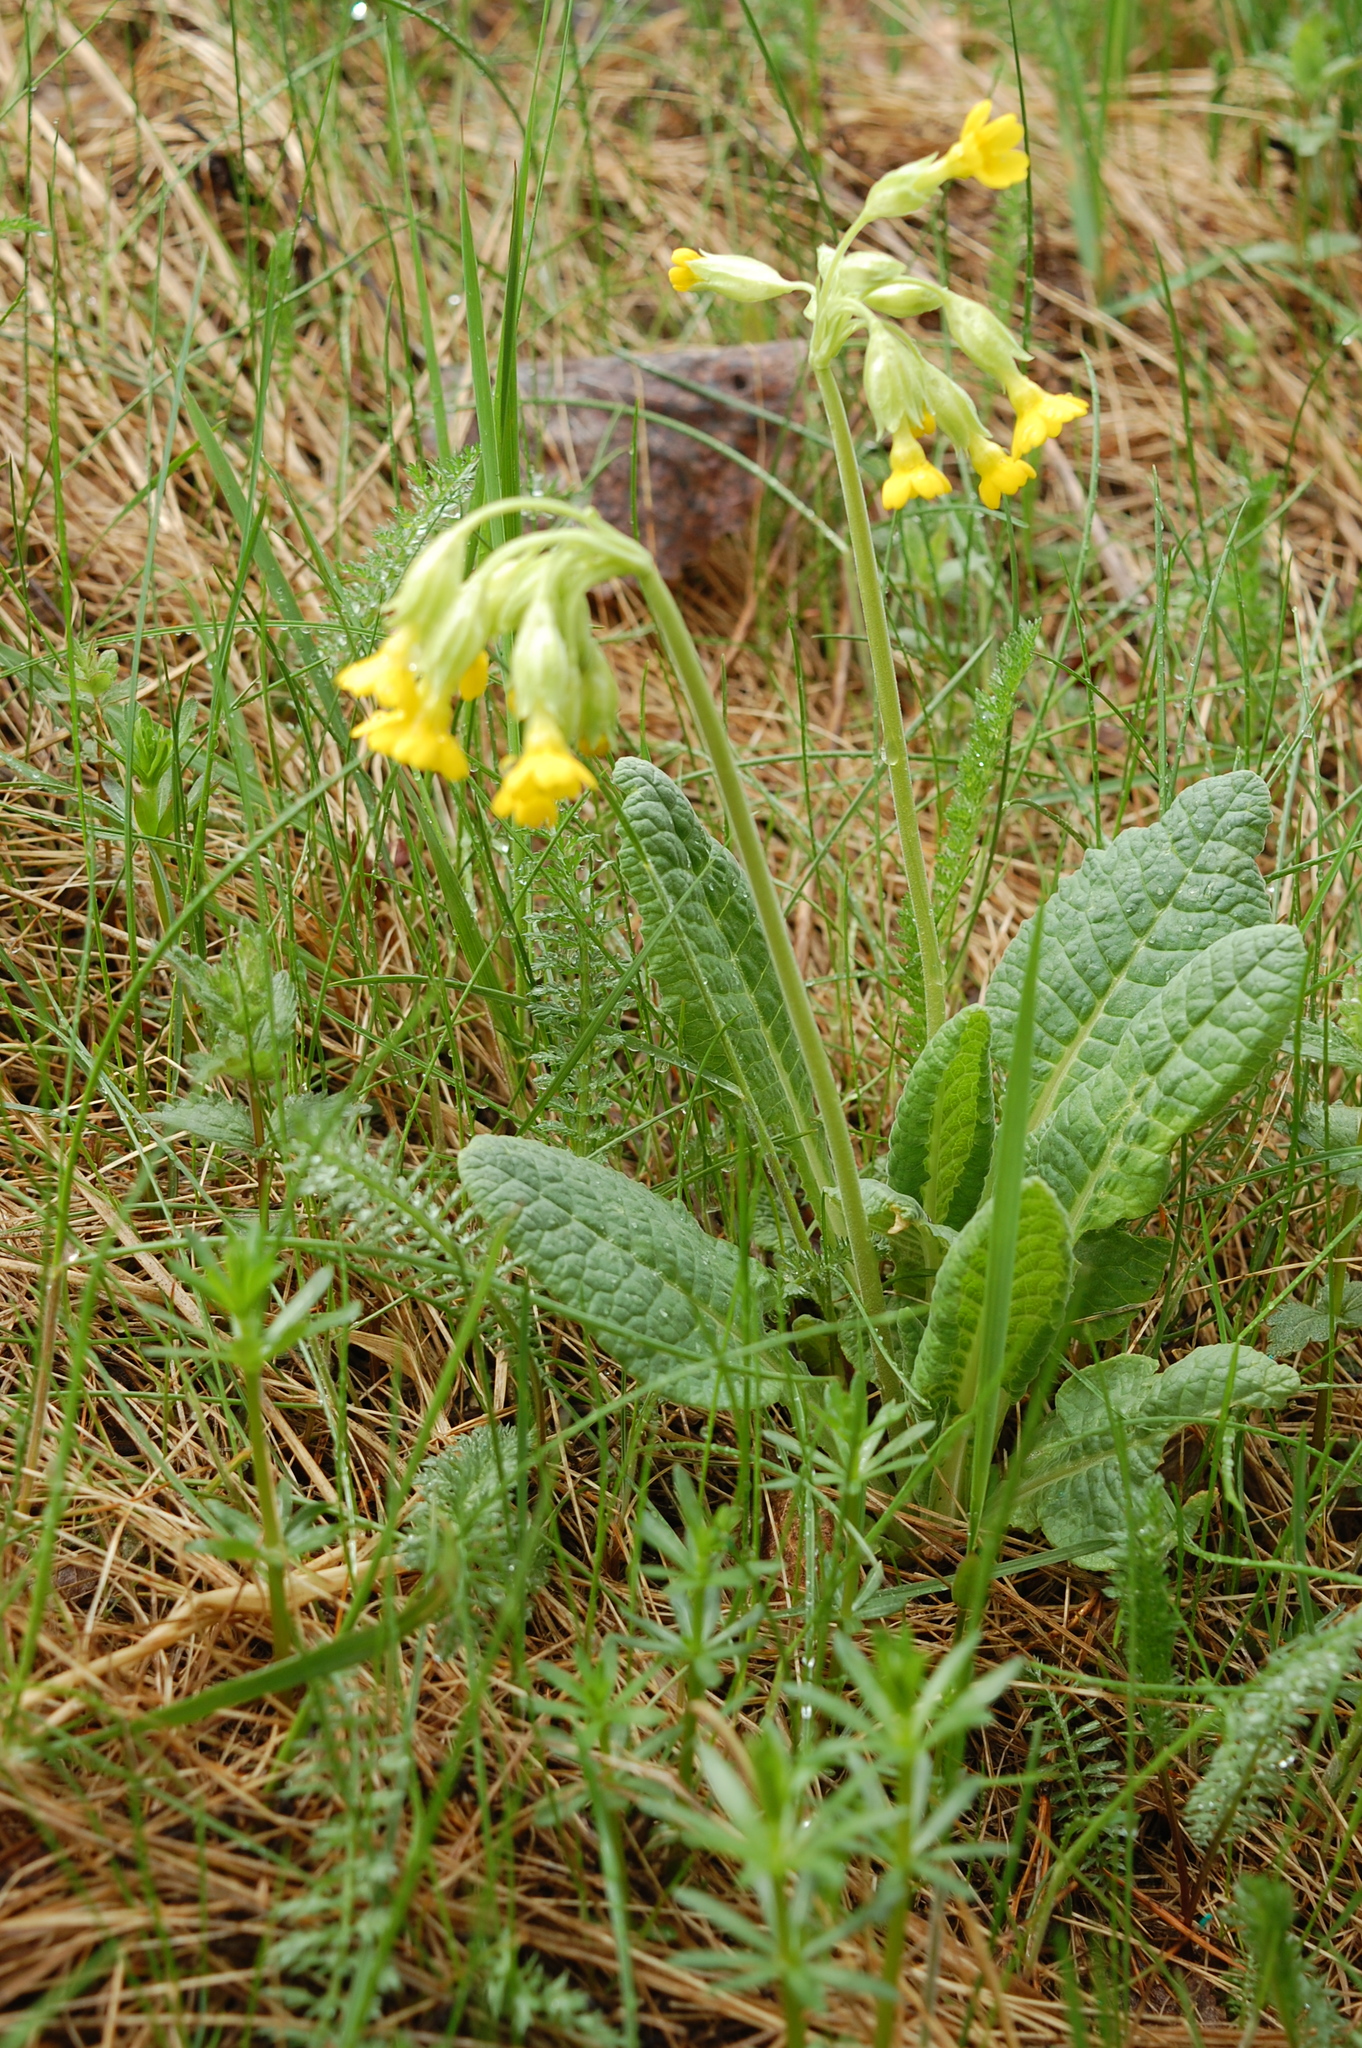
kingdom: Plantae
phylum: Tracheophyta
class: Magnoliopsida
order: Ericales
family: Primulaceae
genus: Primula
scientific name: Primula veris
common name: Cowslip
